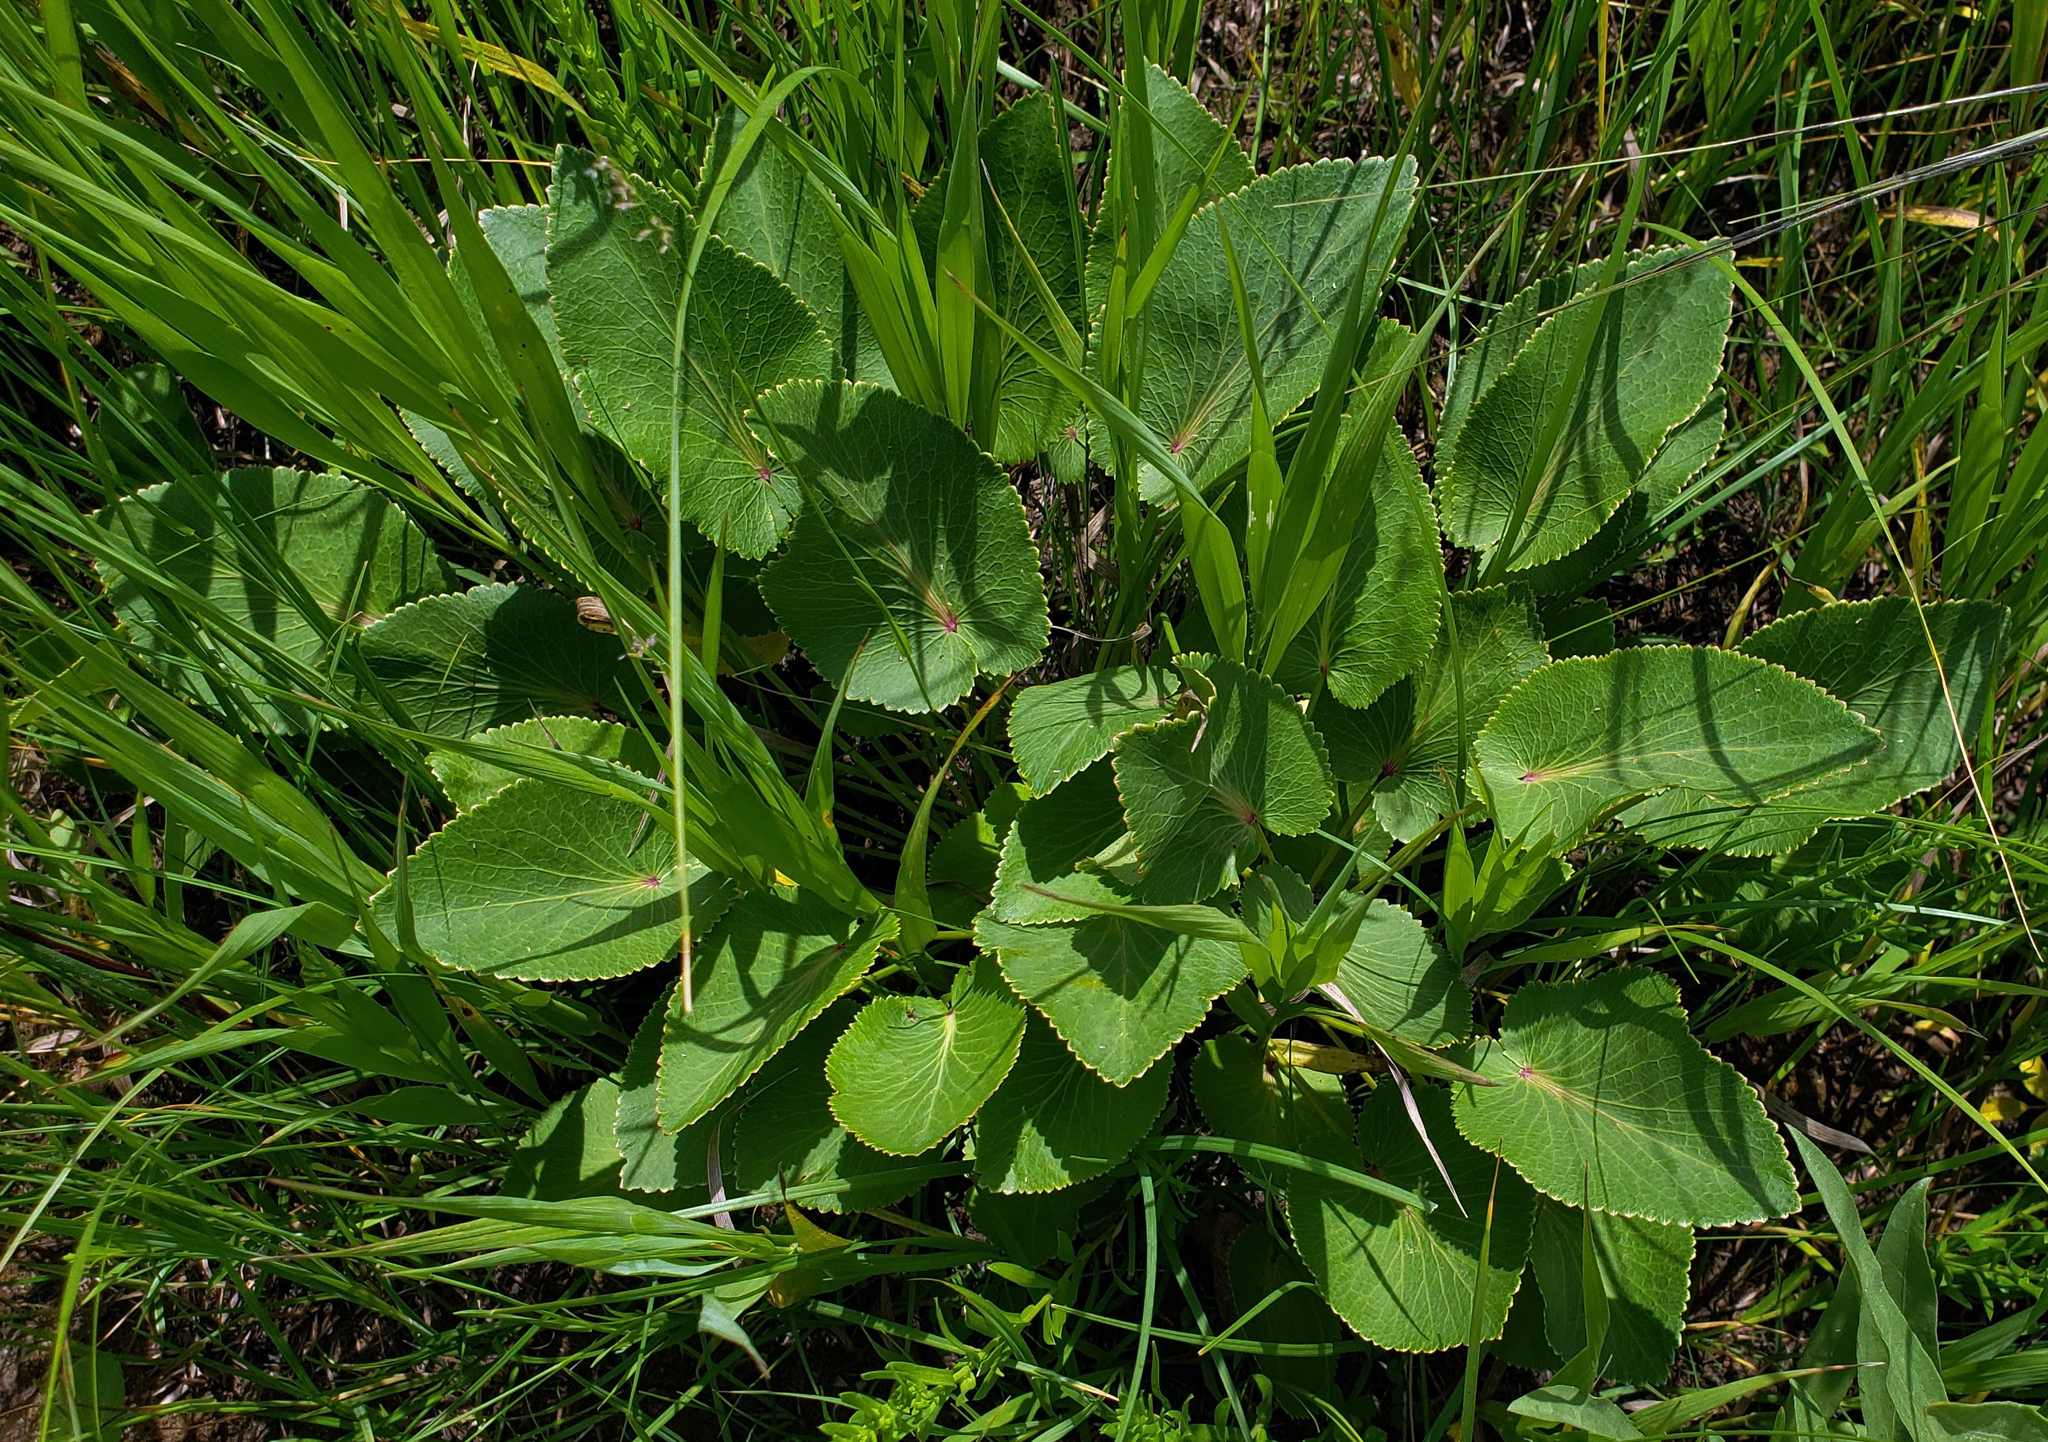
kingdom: Plantae
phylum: Tracheophyta
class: Magnoliopsida
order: Apiales
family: Apiaceae
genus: Zizia
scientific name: Zizia aptera
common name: Heart-leaved alexanders
